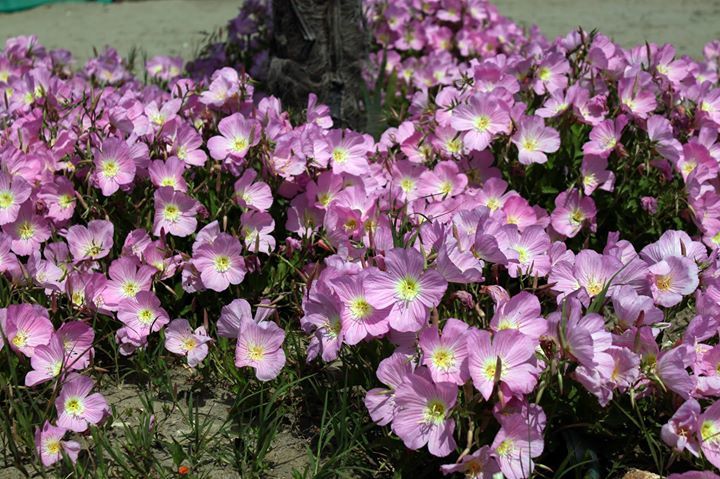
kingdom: Plantae
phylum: Tracheophyta
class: Magnoliopsida
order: Myrtales
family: Onagraceae
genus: Oenothera
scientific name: Oenothera speciosa
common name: White evening-primrose
